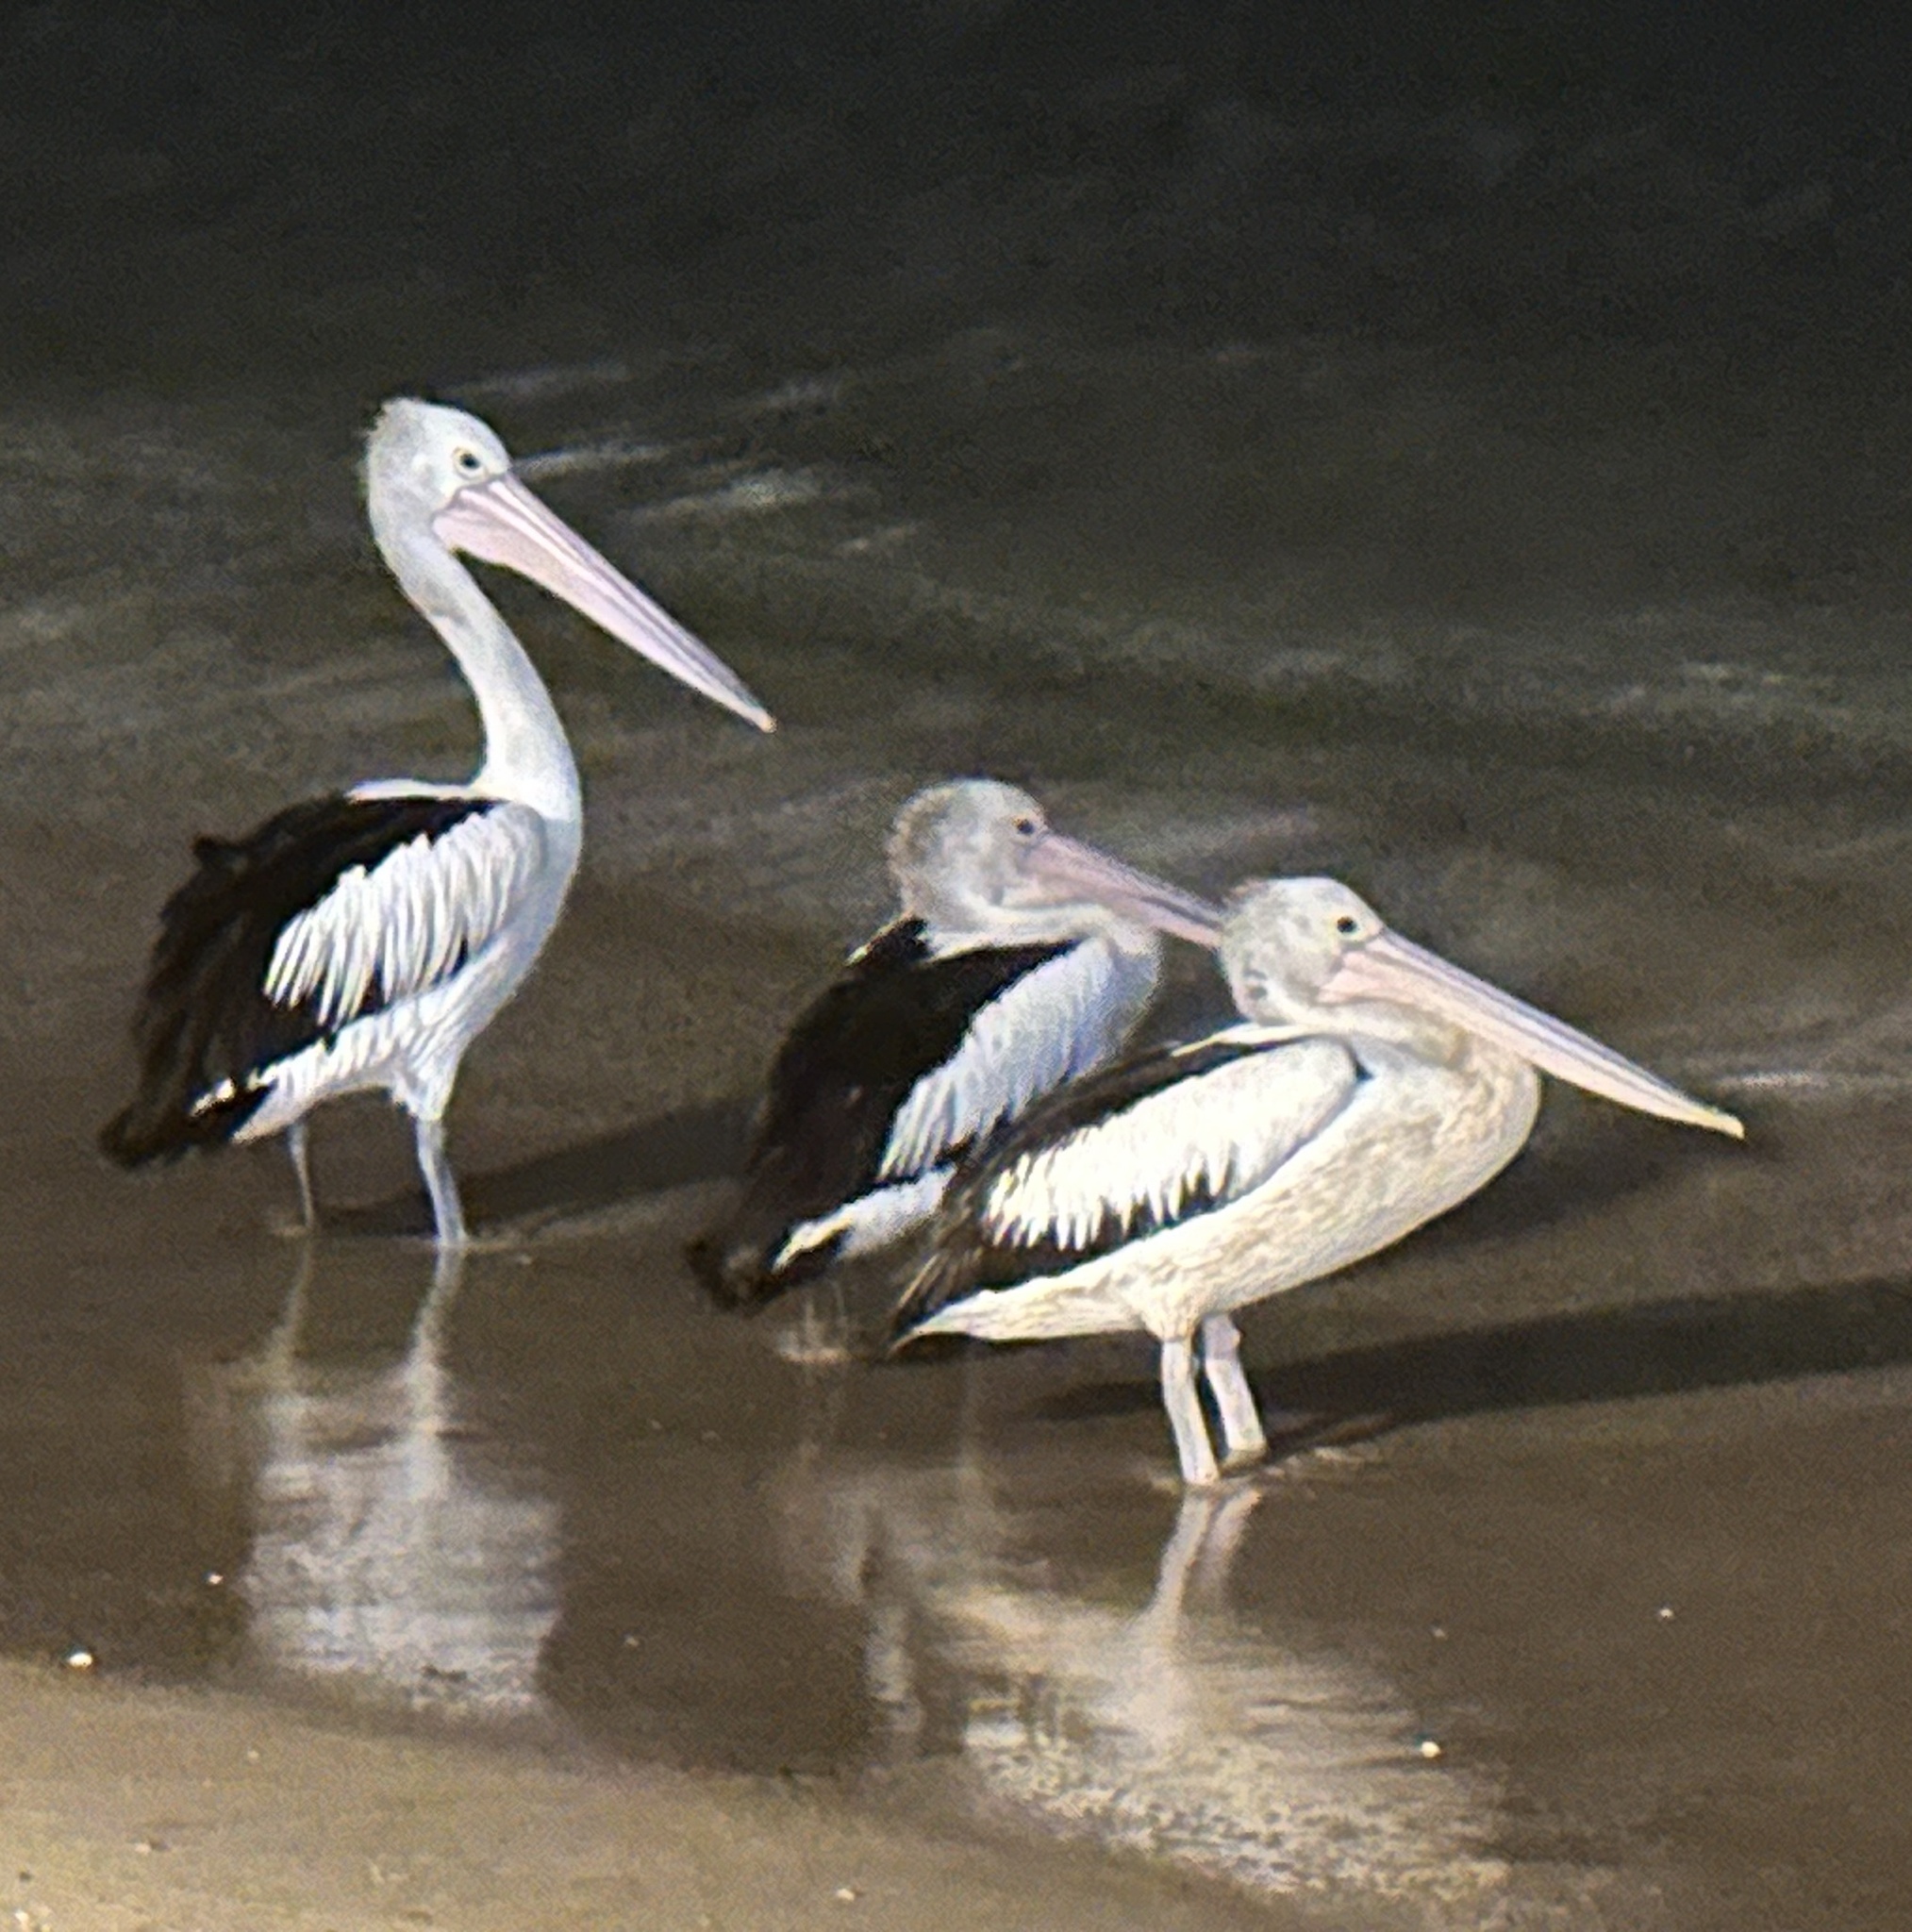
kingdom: Animalia
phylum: Chordata
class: Aves
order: Pelecaniformes
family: Pelecanidae
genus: Pelecanus
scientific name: Pelecanus conspicillatus
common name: Australian pelican
